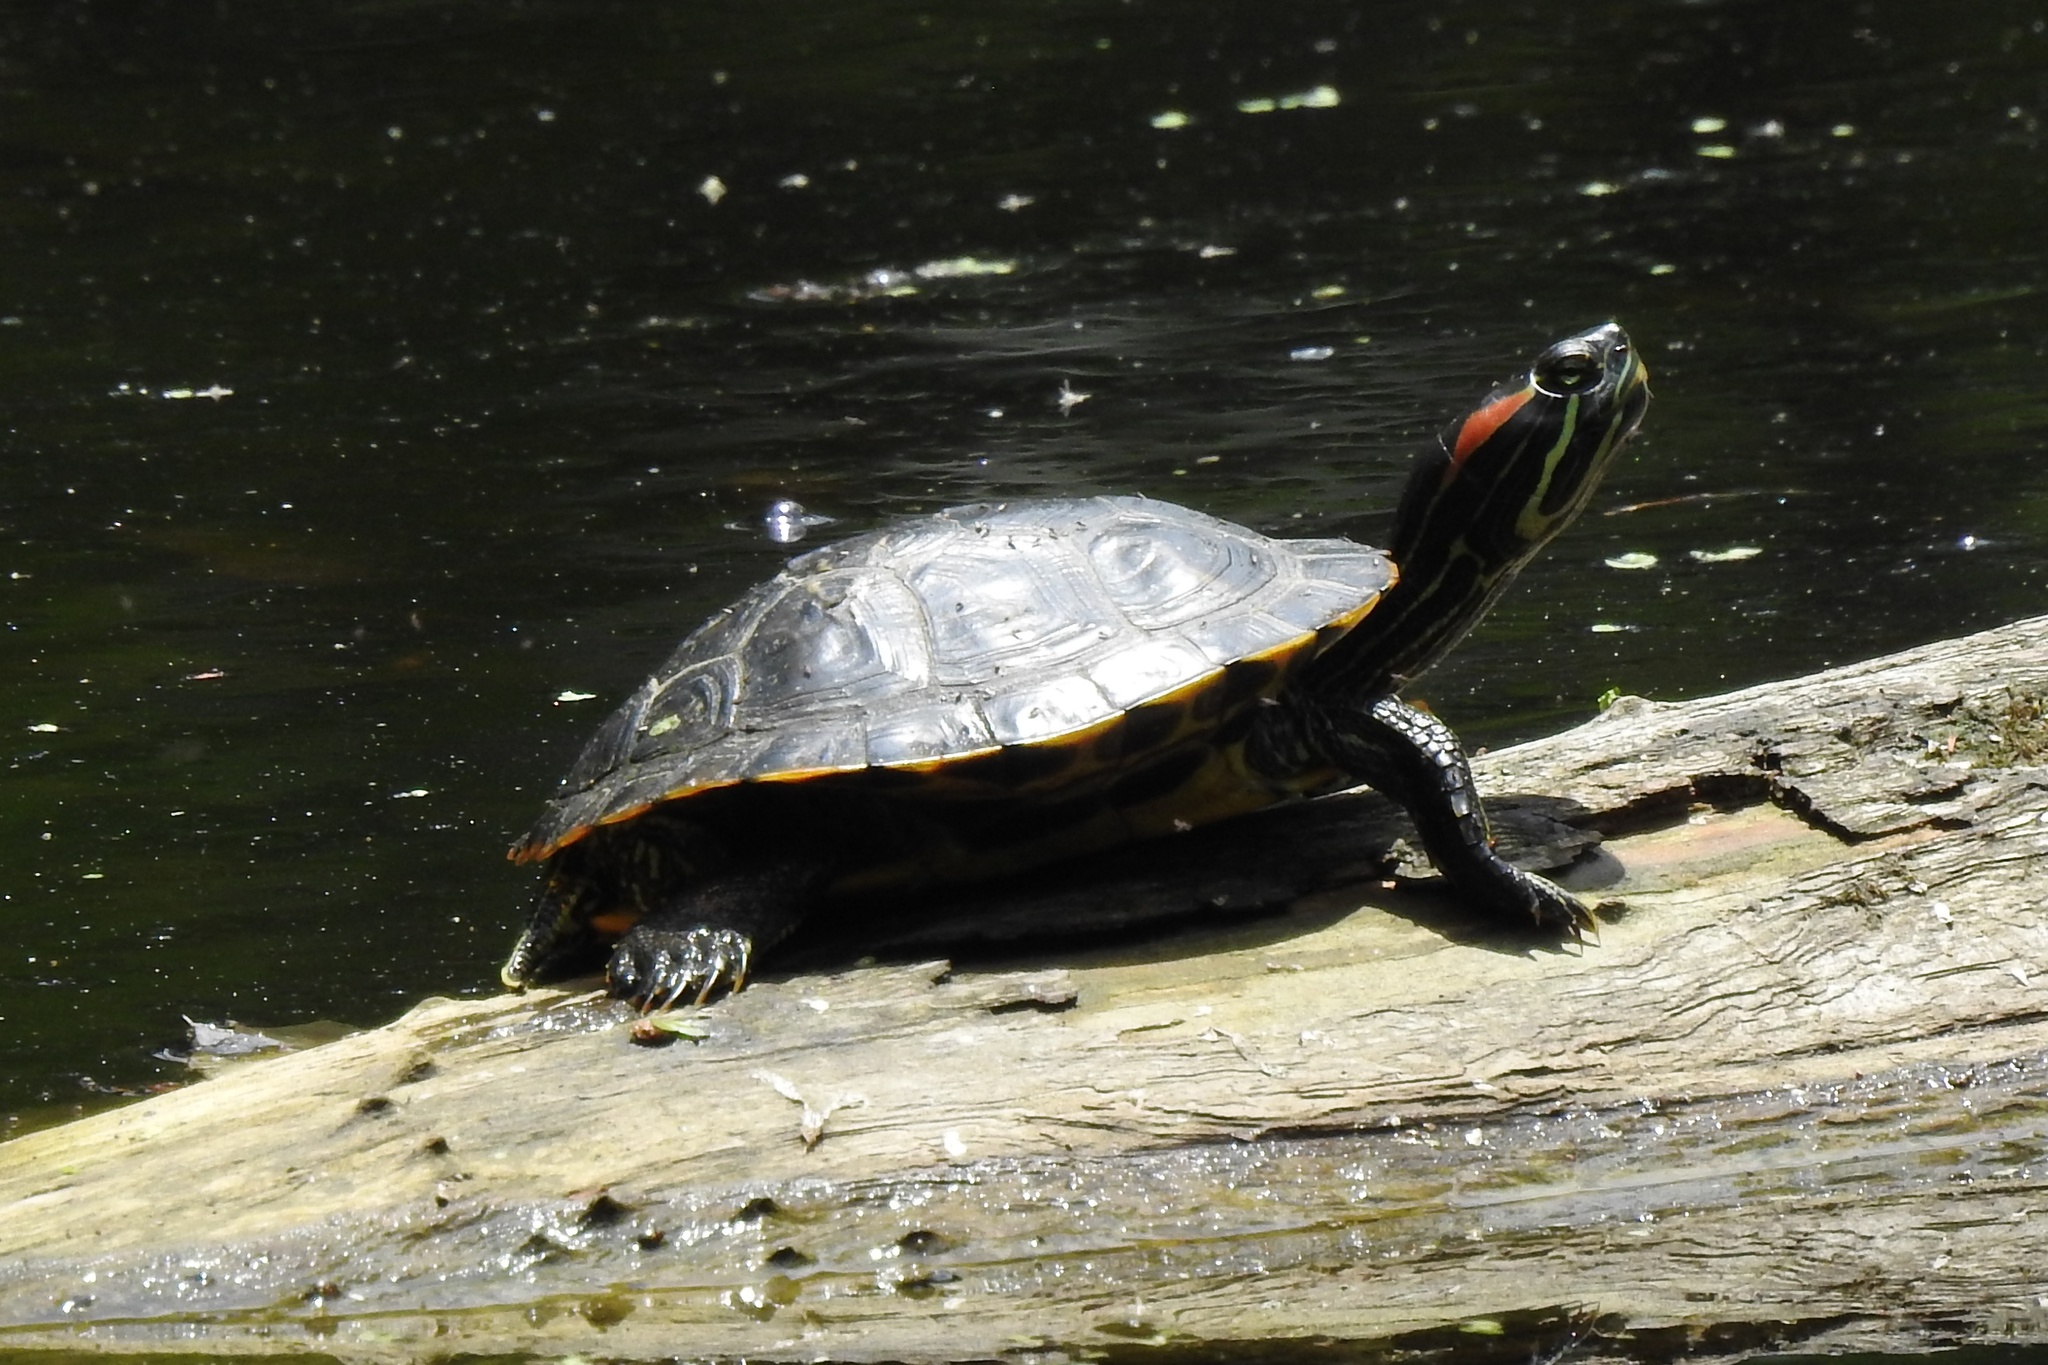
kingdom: Animalia
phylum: Chordata
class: Testudines
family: Emydidae
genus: Trachemys
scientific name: Trachemys scripta
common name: Slider
